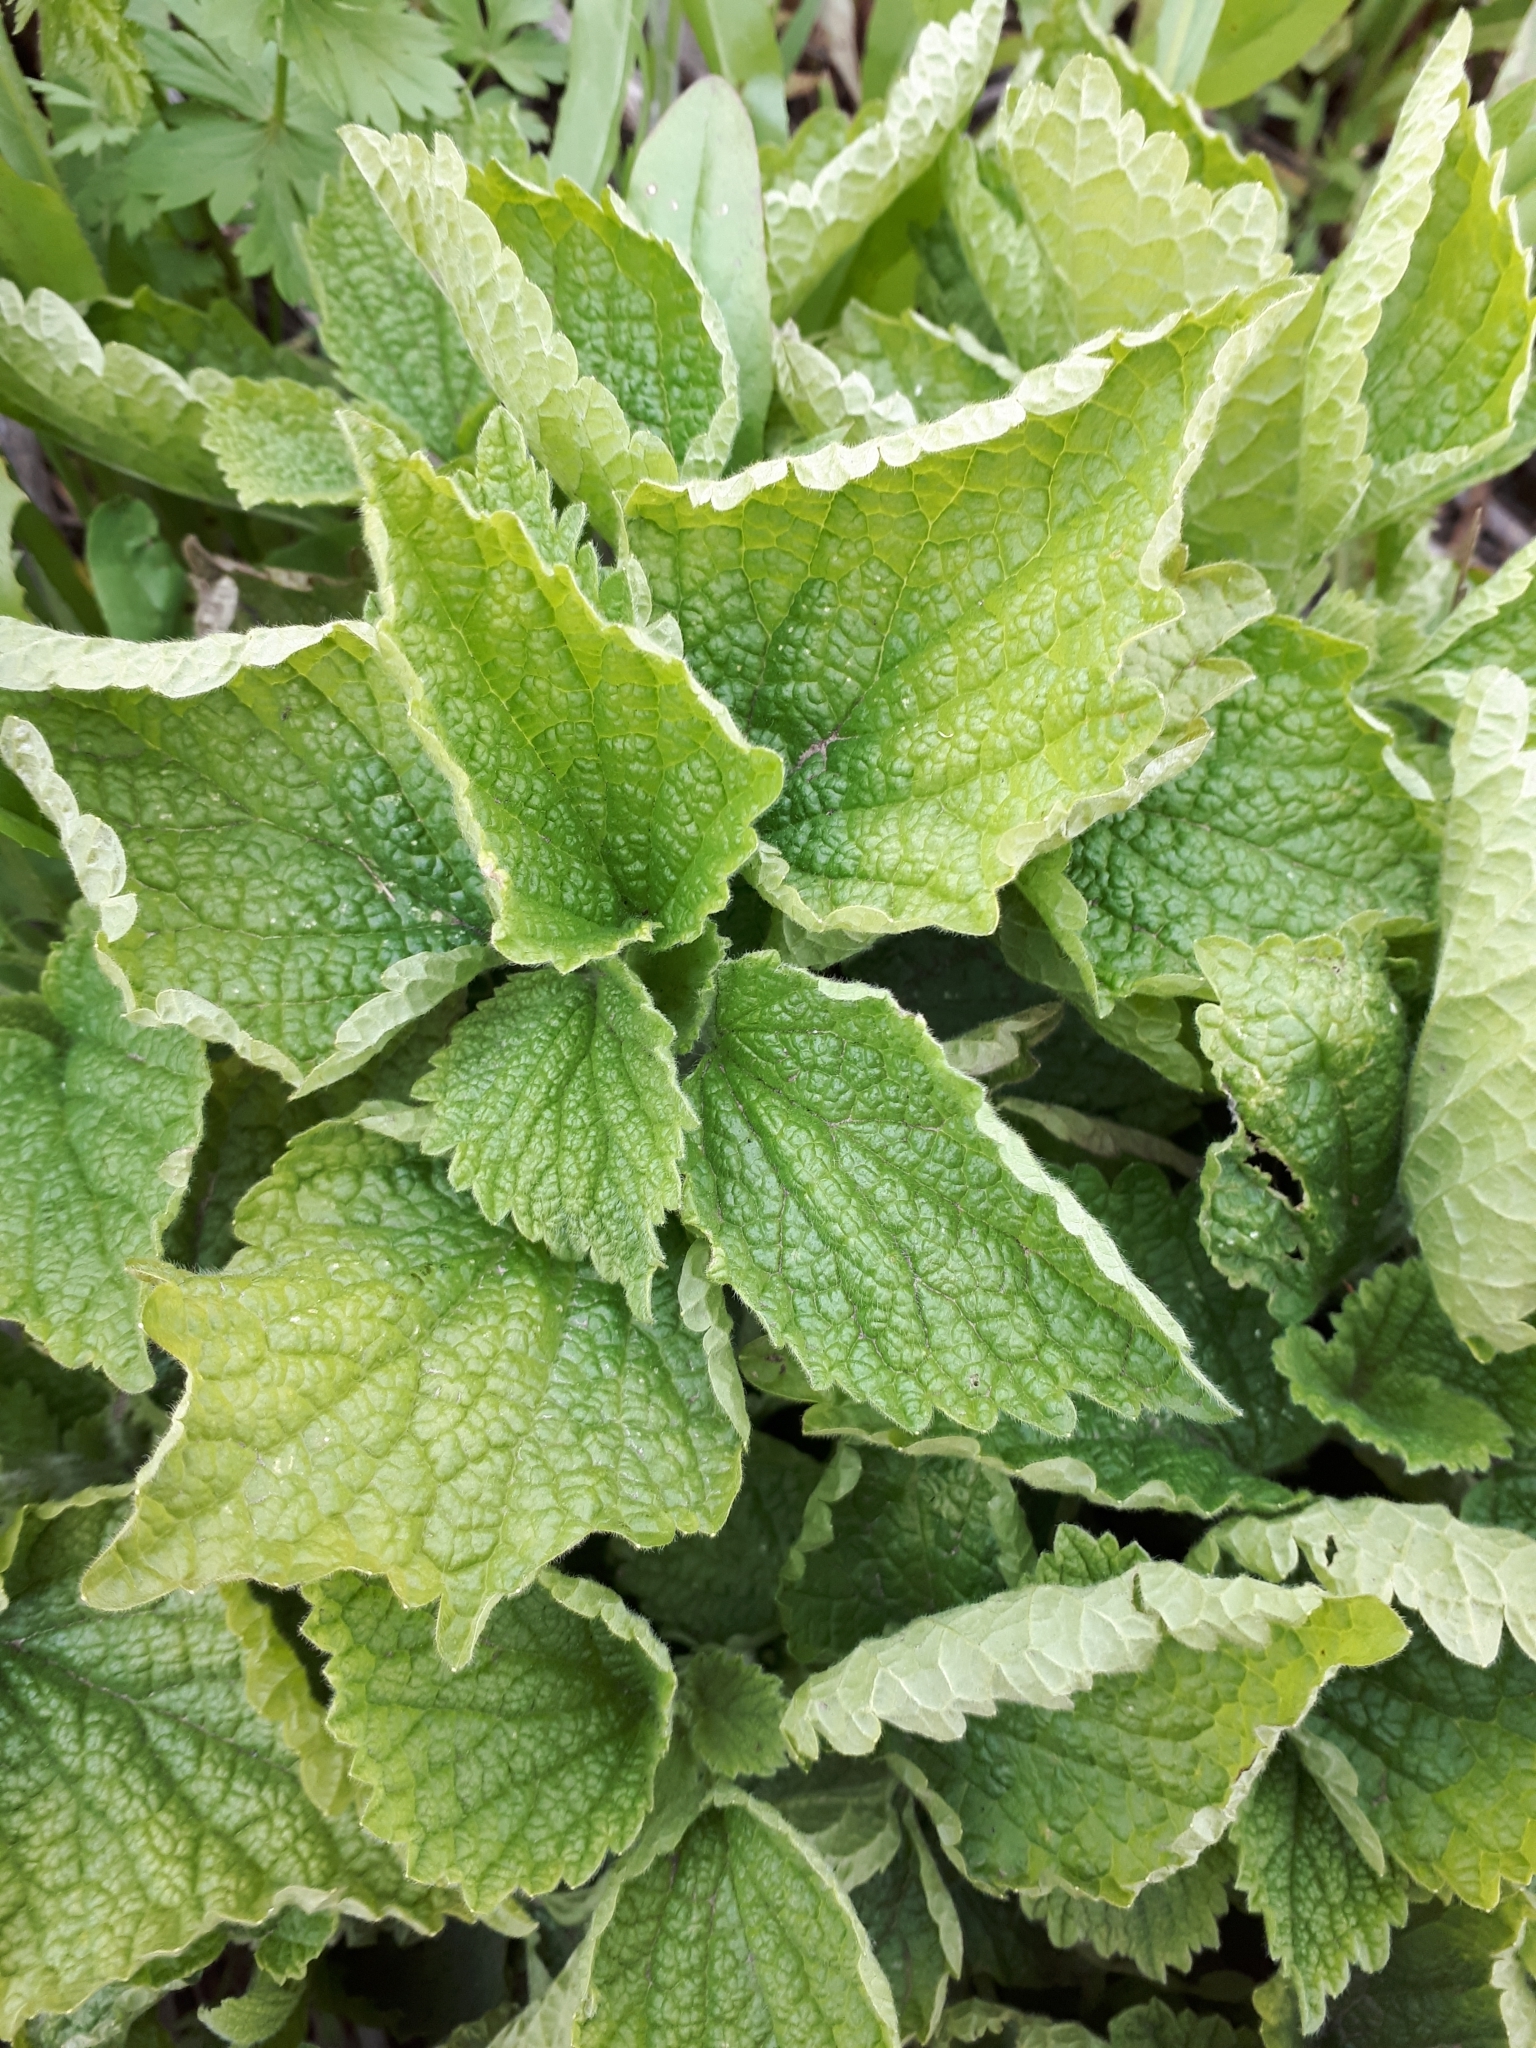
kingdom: Plantae
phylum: Tracheophyta
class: Magnoliopsida
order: Lamiales
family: Lamiaceae
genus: Lamium
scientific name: Lamium album
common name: White dead-nettle
